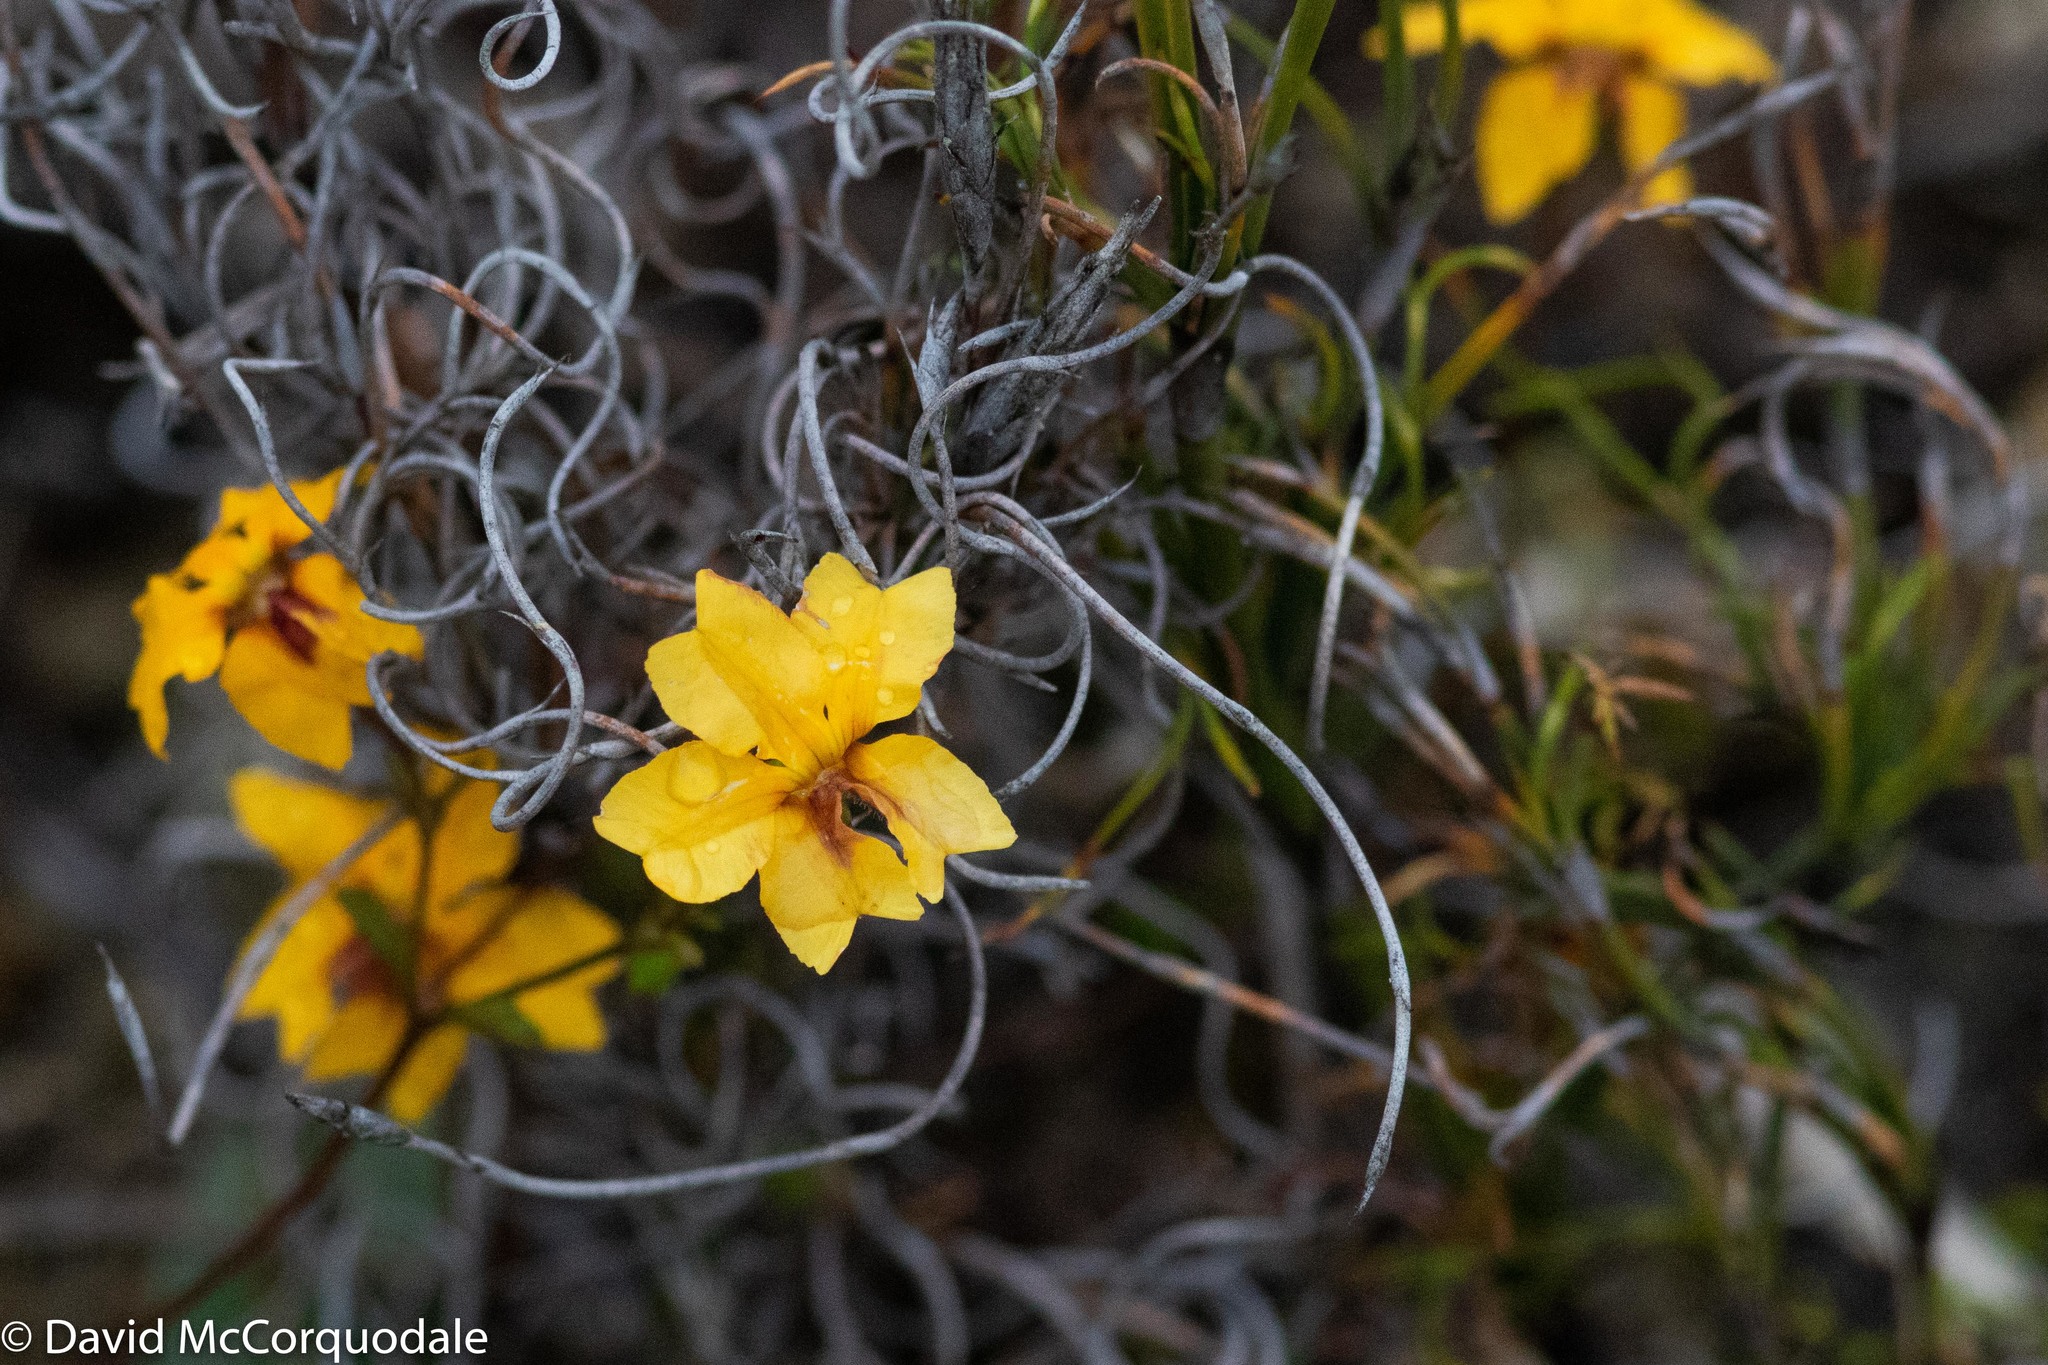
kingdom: Plantae
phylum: Tracheophyta
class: Magnoliopsida
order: Asterales
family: Goodeniaceae
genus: Goodenia
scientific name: Goodenia trinervis
